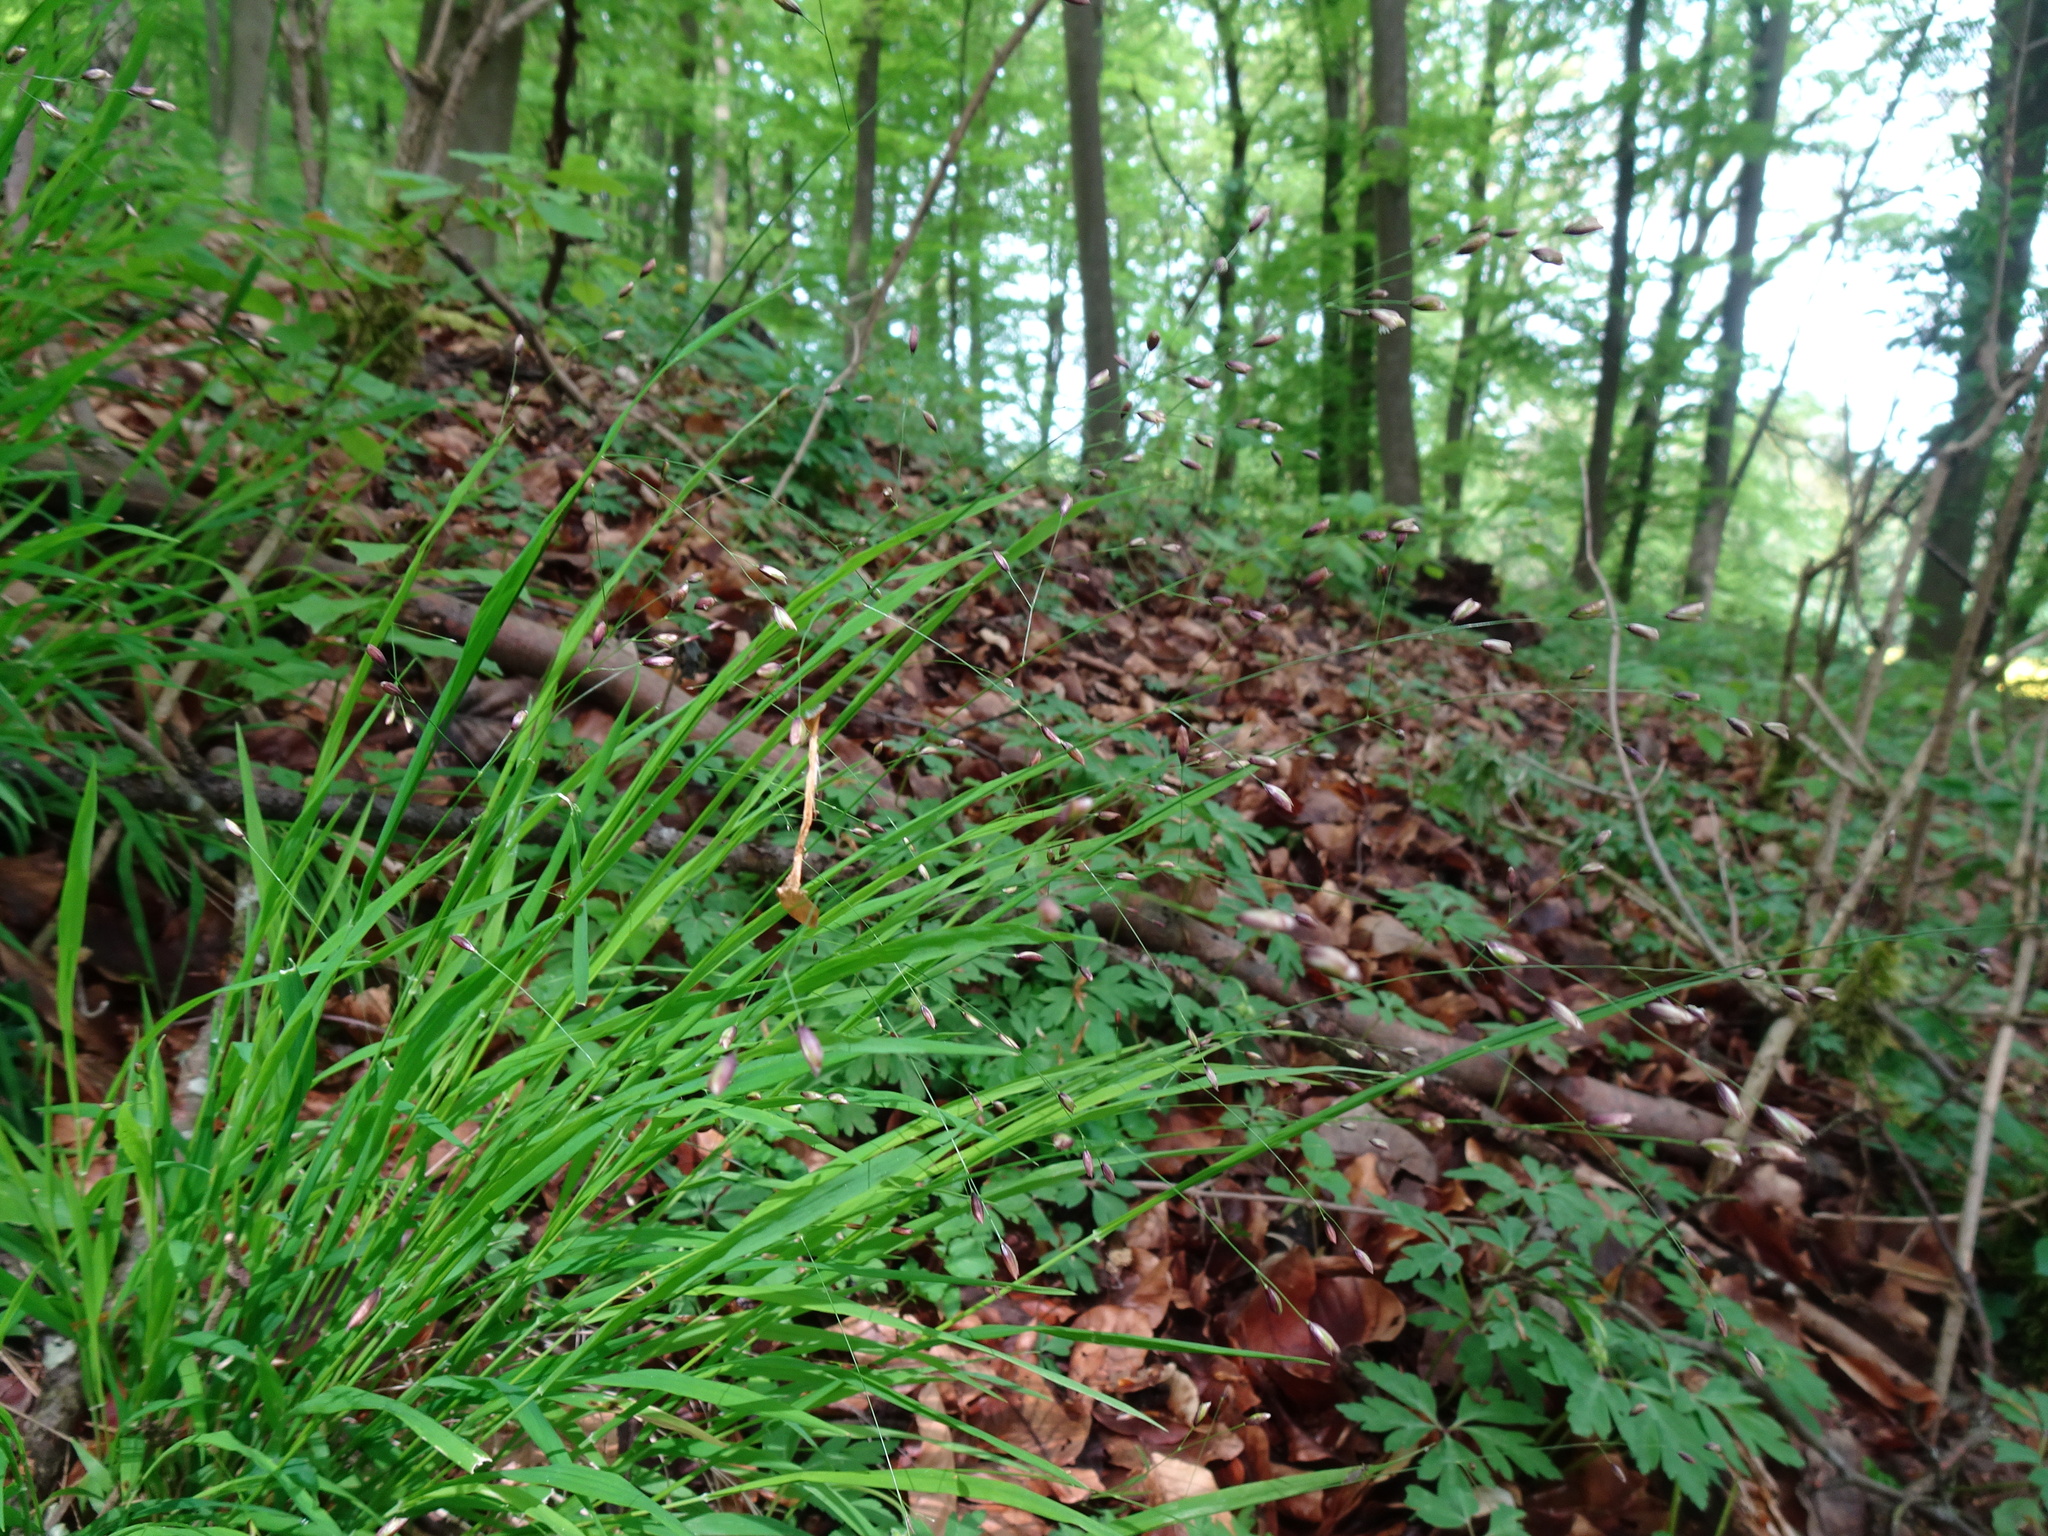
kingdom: Plantae
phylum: Tracheophyta
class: Liliopsida
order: Poales
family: Poaceae
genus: Melica
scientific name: Melica uniflora
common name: Wood melick
